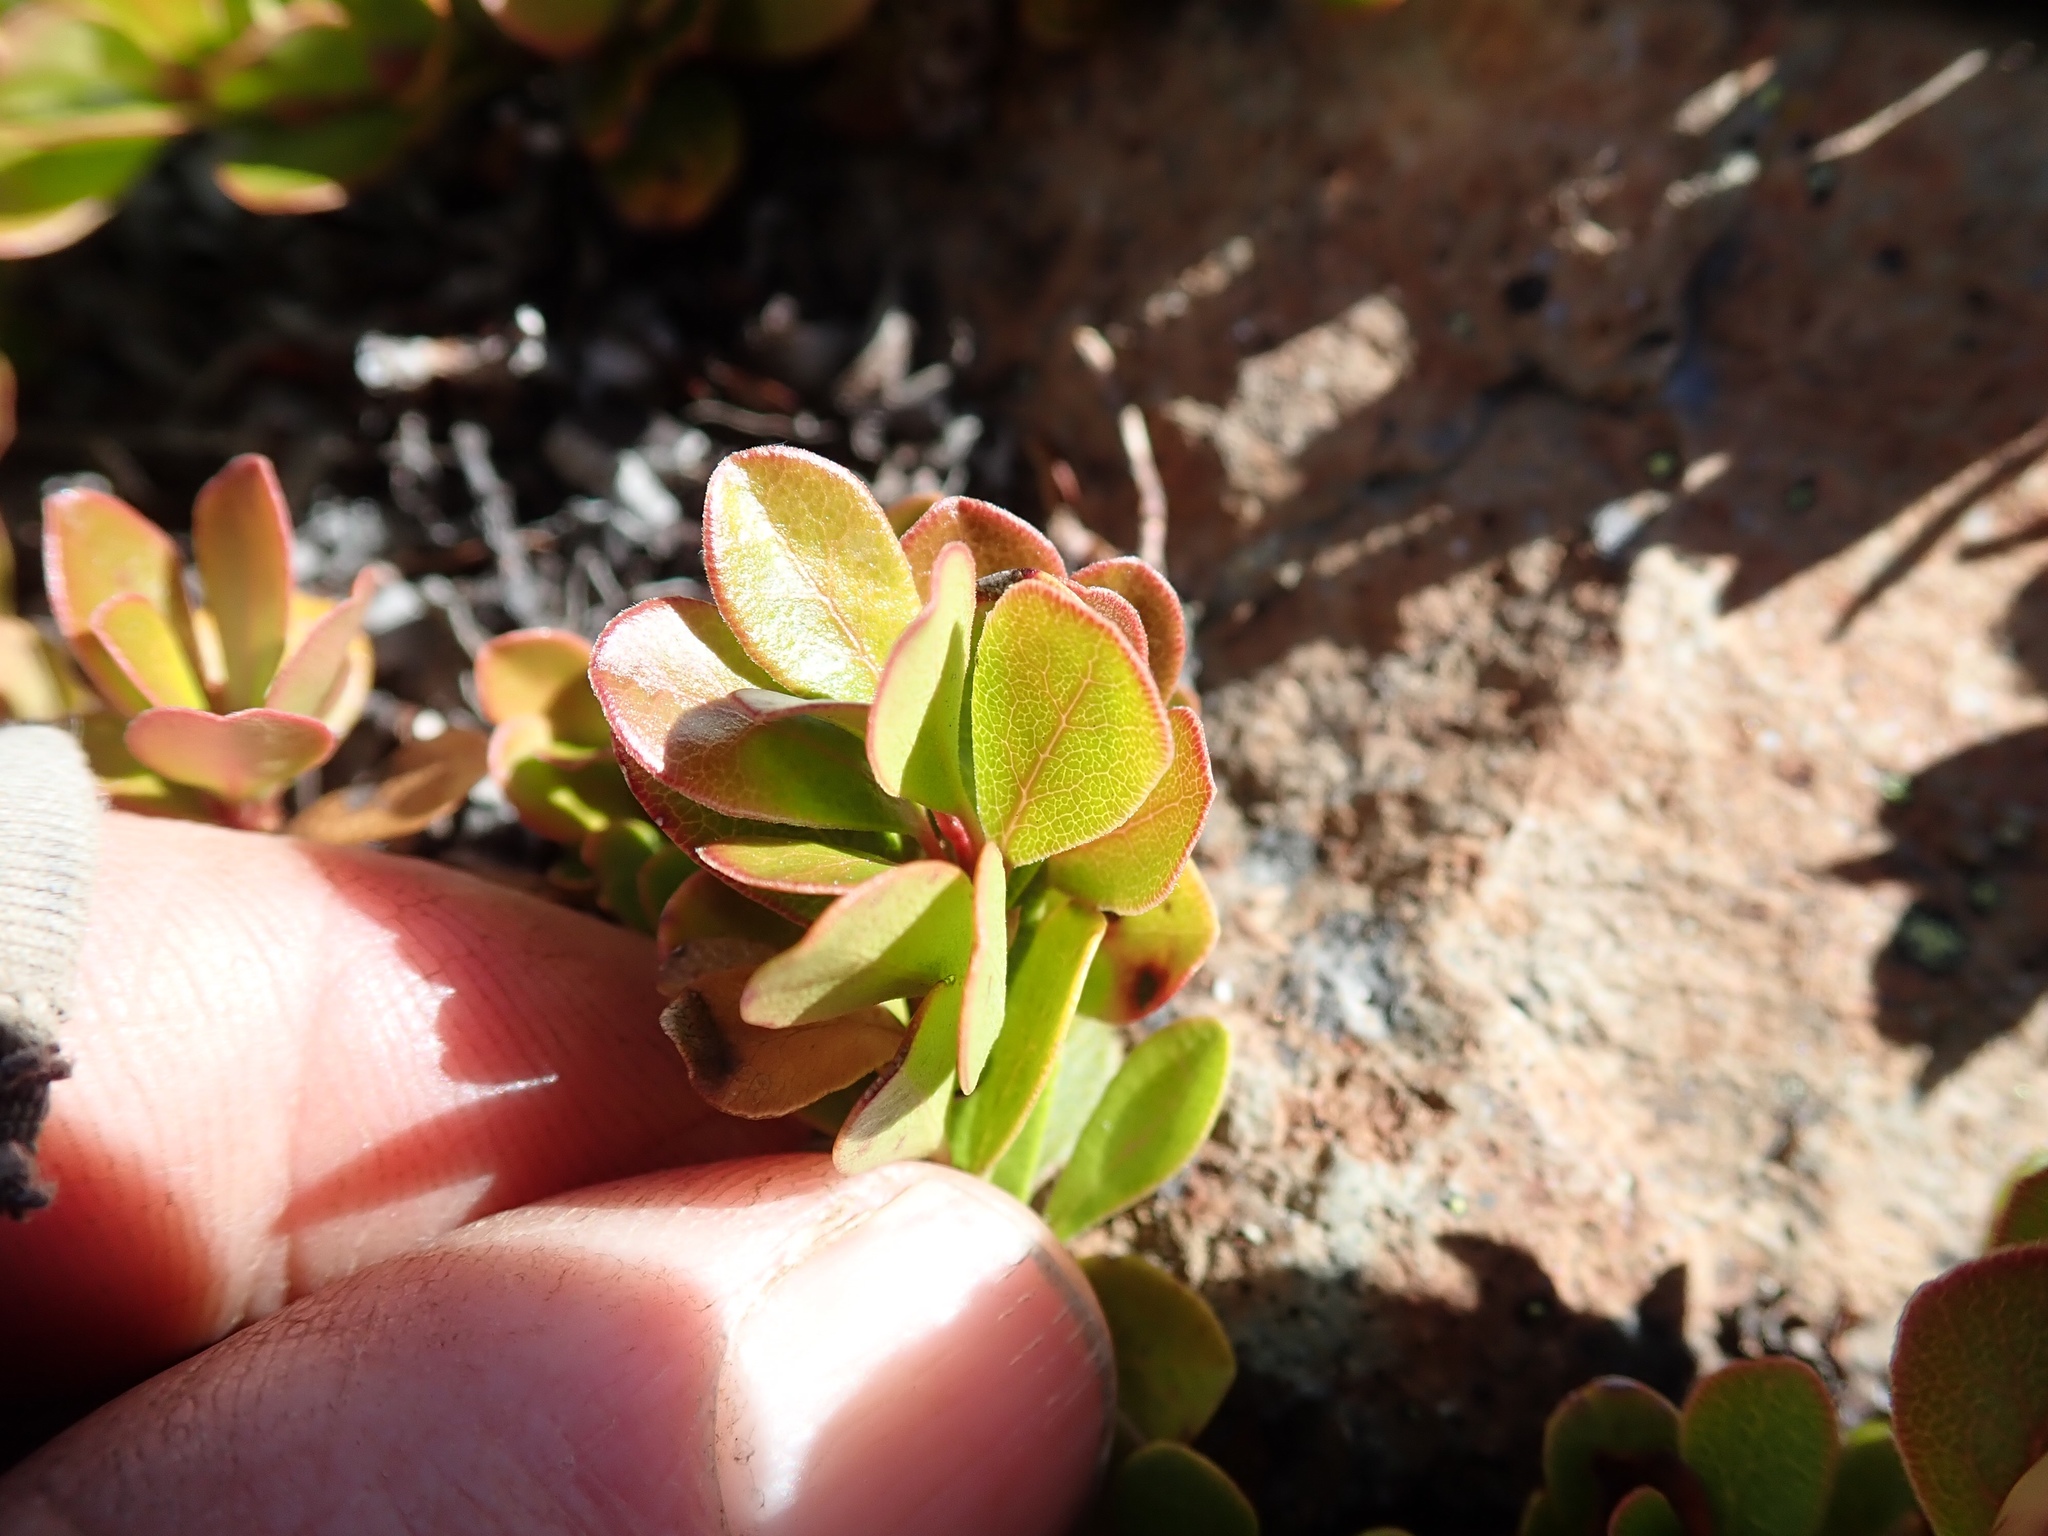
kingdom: Plantae
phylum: Tracheophyta
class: Magnoliopsida
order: Ericales
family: Ericaceae
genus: Arctostaphylos
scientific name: Arctostaphylos uva-ursi
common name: Bearberry
